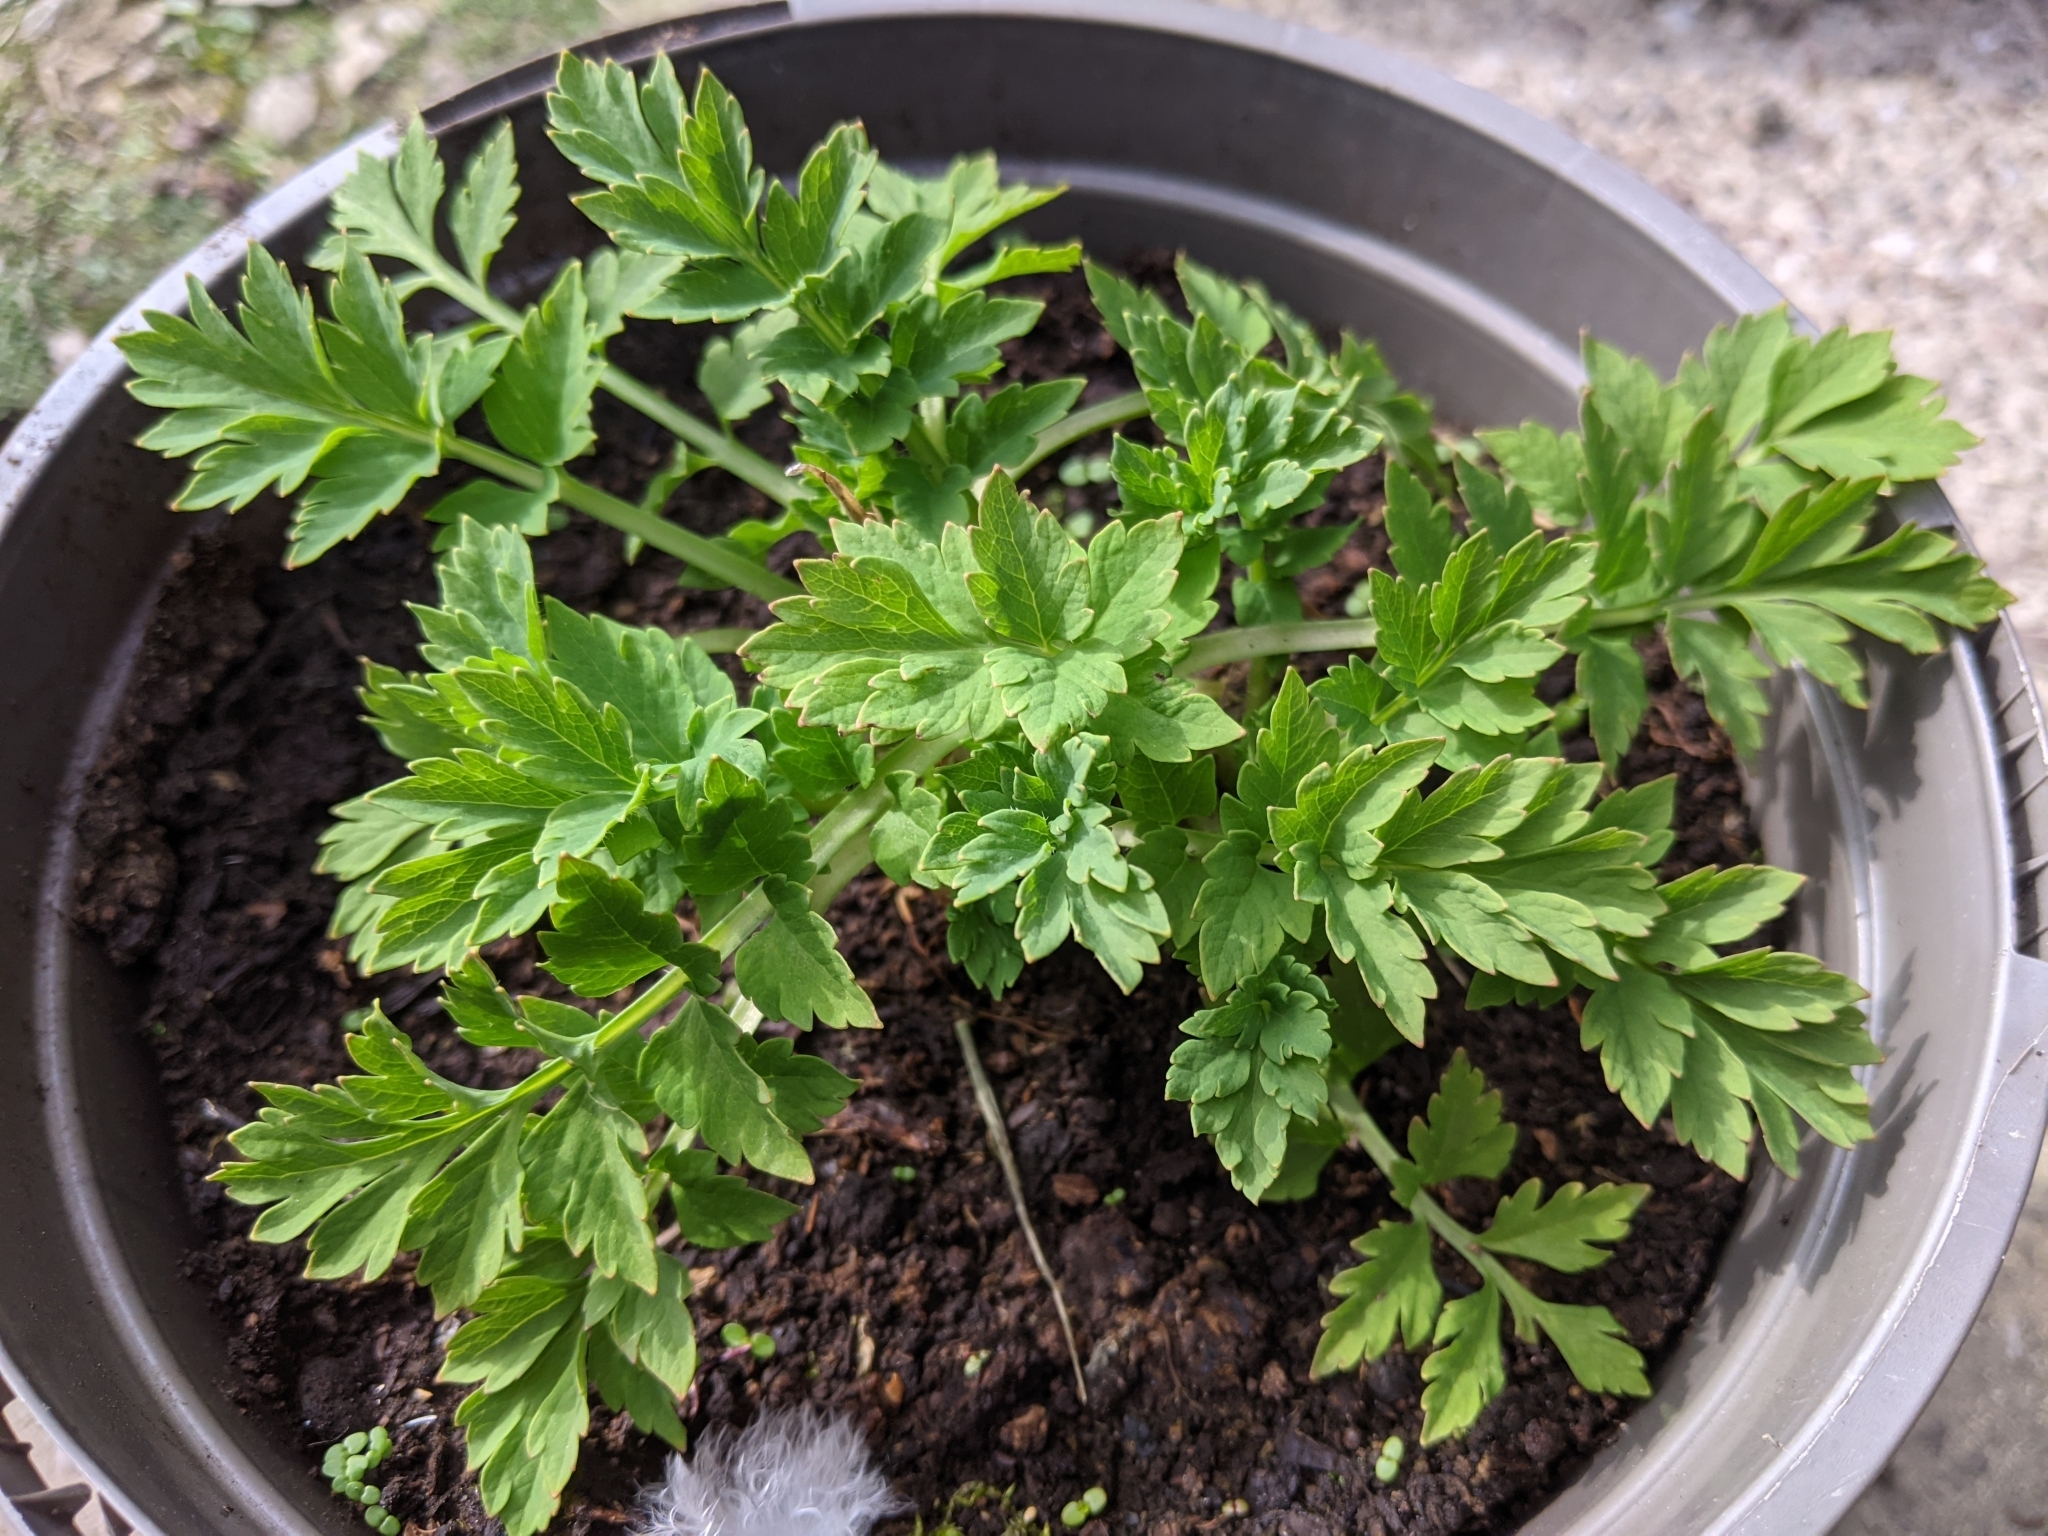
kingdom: Plantae
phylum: Tracheophyta
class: Magnoliopsida
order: Ranunculales
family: Papaveraceae
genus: Papaver
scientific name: Papaver cambricum
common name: Poppy
